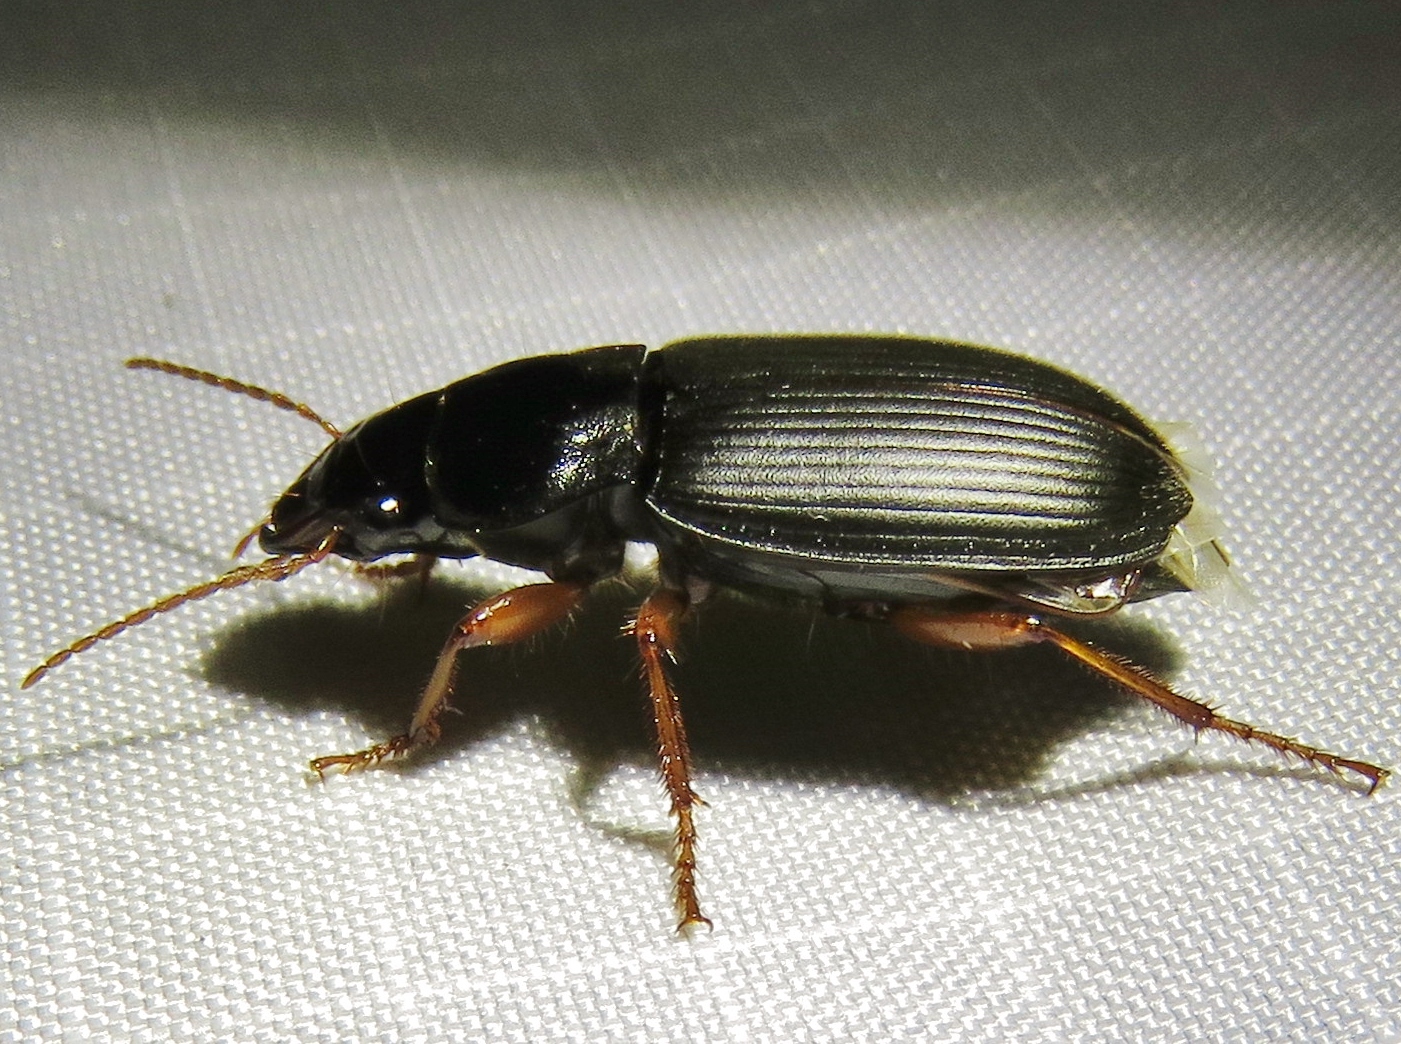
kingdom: Animalia
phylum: Arthropoda
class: Insecta
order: Coleoptera
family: Carabidae
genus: Harpalus
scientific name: Harpalus rufipes
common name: Strawberry harp ground beetle
